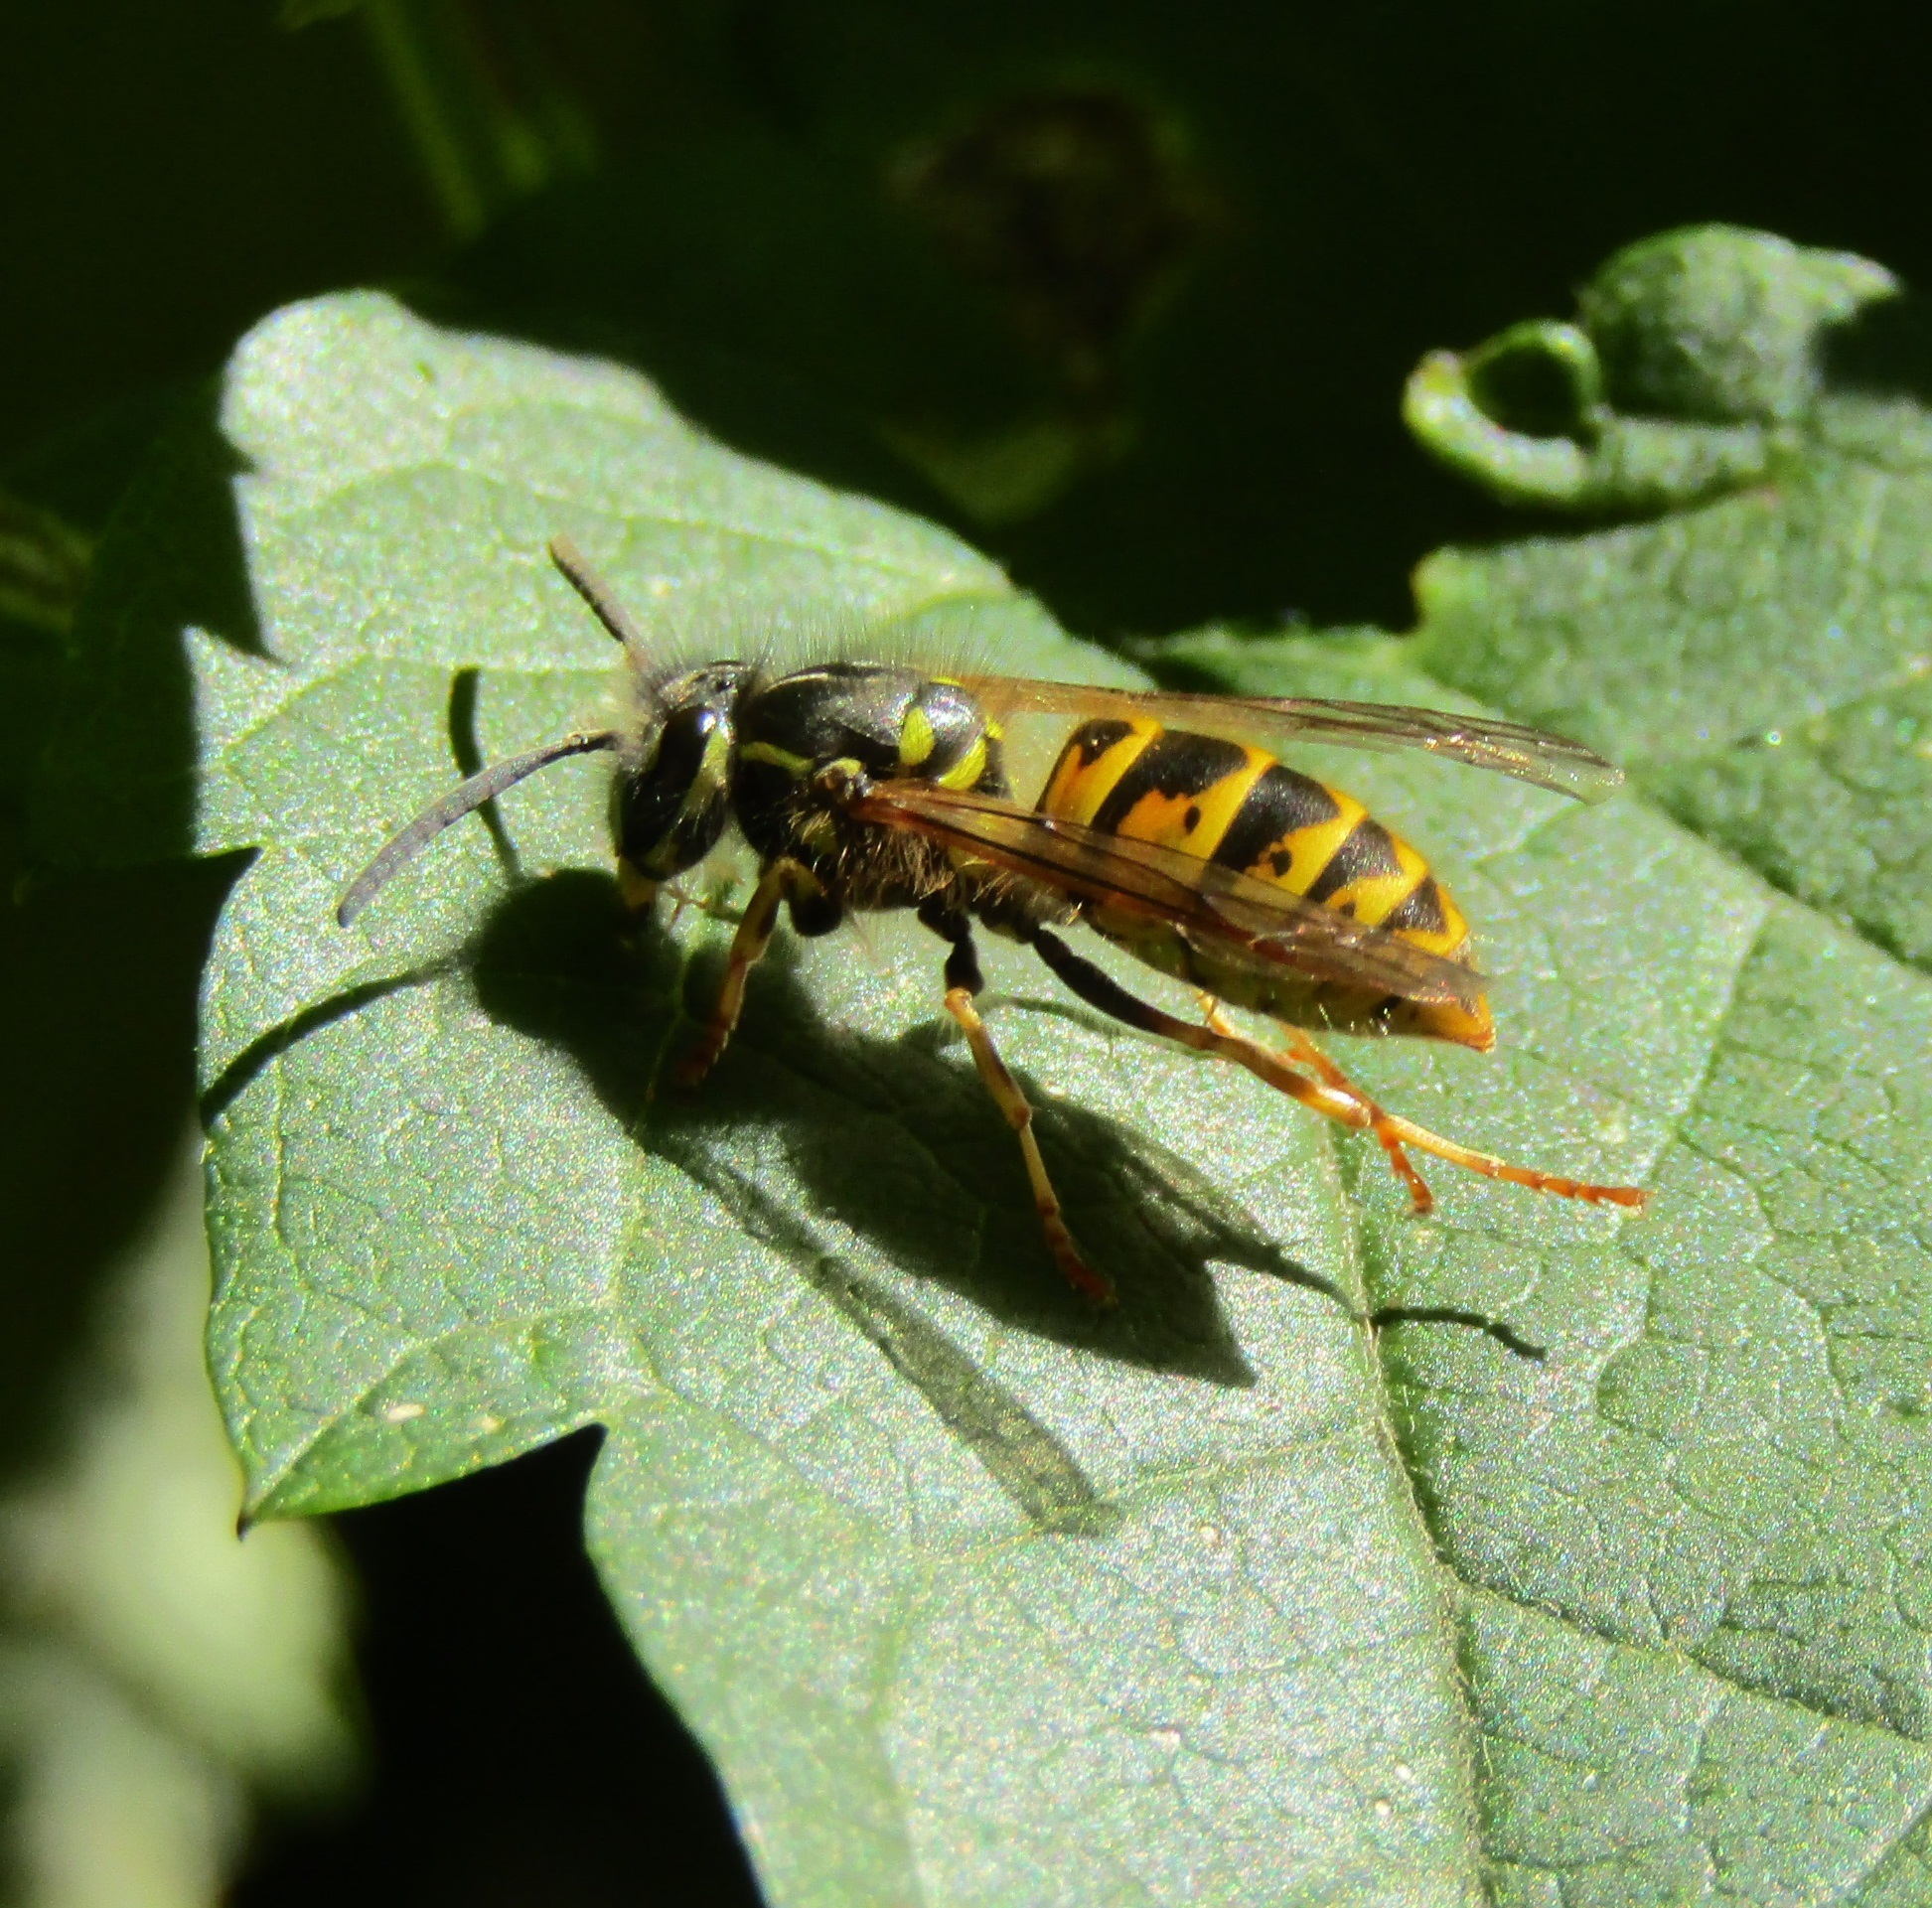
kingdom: Animalia
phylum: Arthropoda
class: Insecta
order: Hymenoptera
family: Vespidae
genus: Vespula
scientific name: Vespula vulgaris
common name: Common wasp
